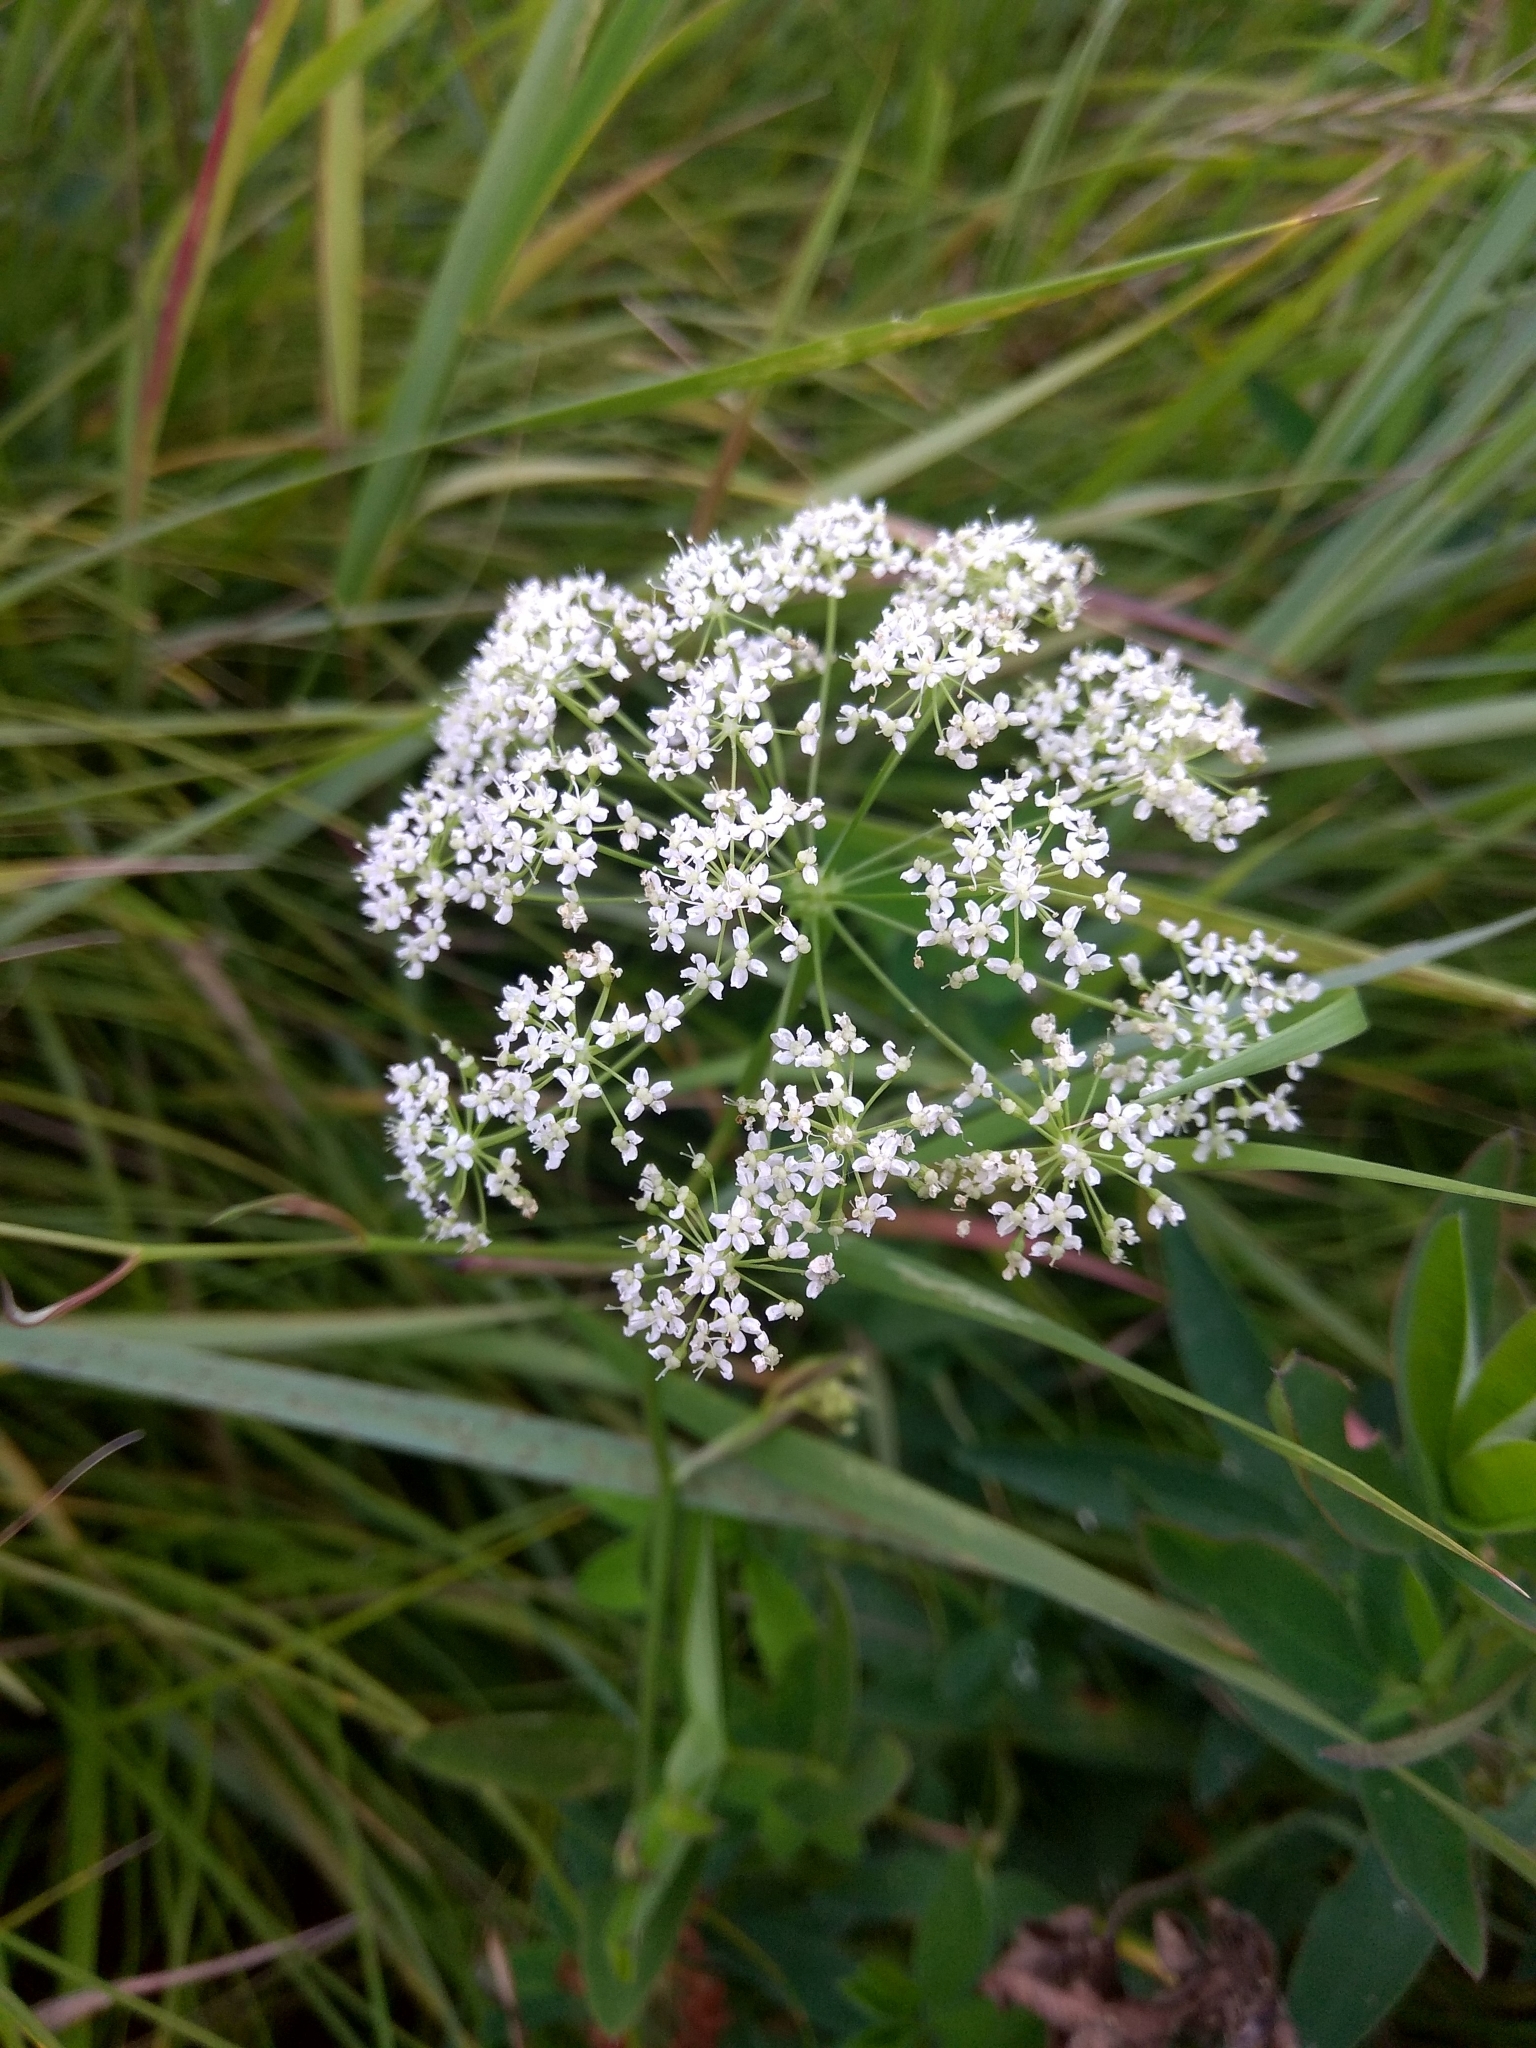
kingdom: Plantae
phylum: Tracheophyta
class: Magnoliopsida
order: Apiales
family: Apiaceae
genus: Pimpinella
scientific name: Pimpinella saxifraga
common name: Burnet-saxifrage
